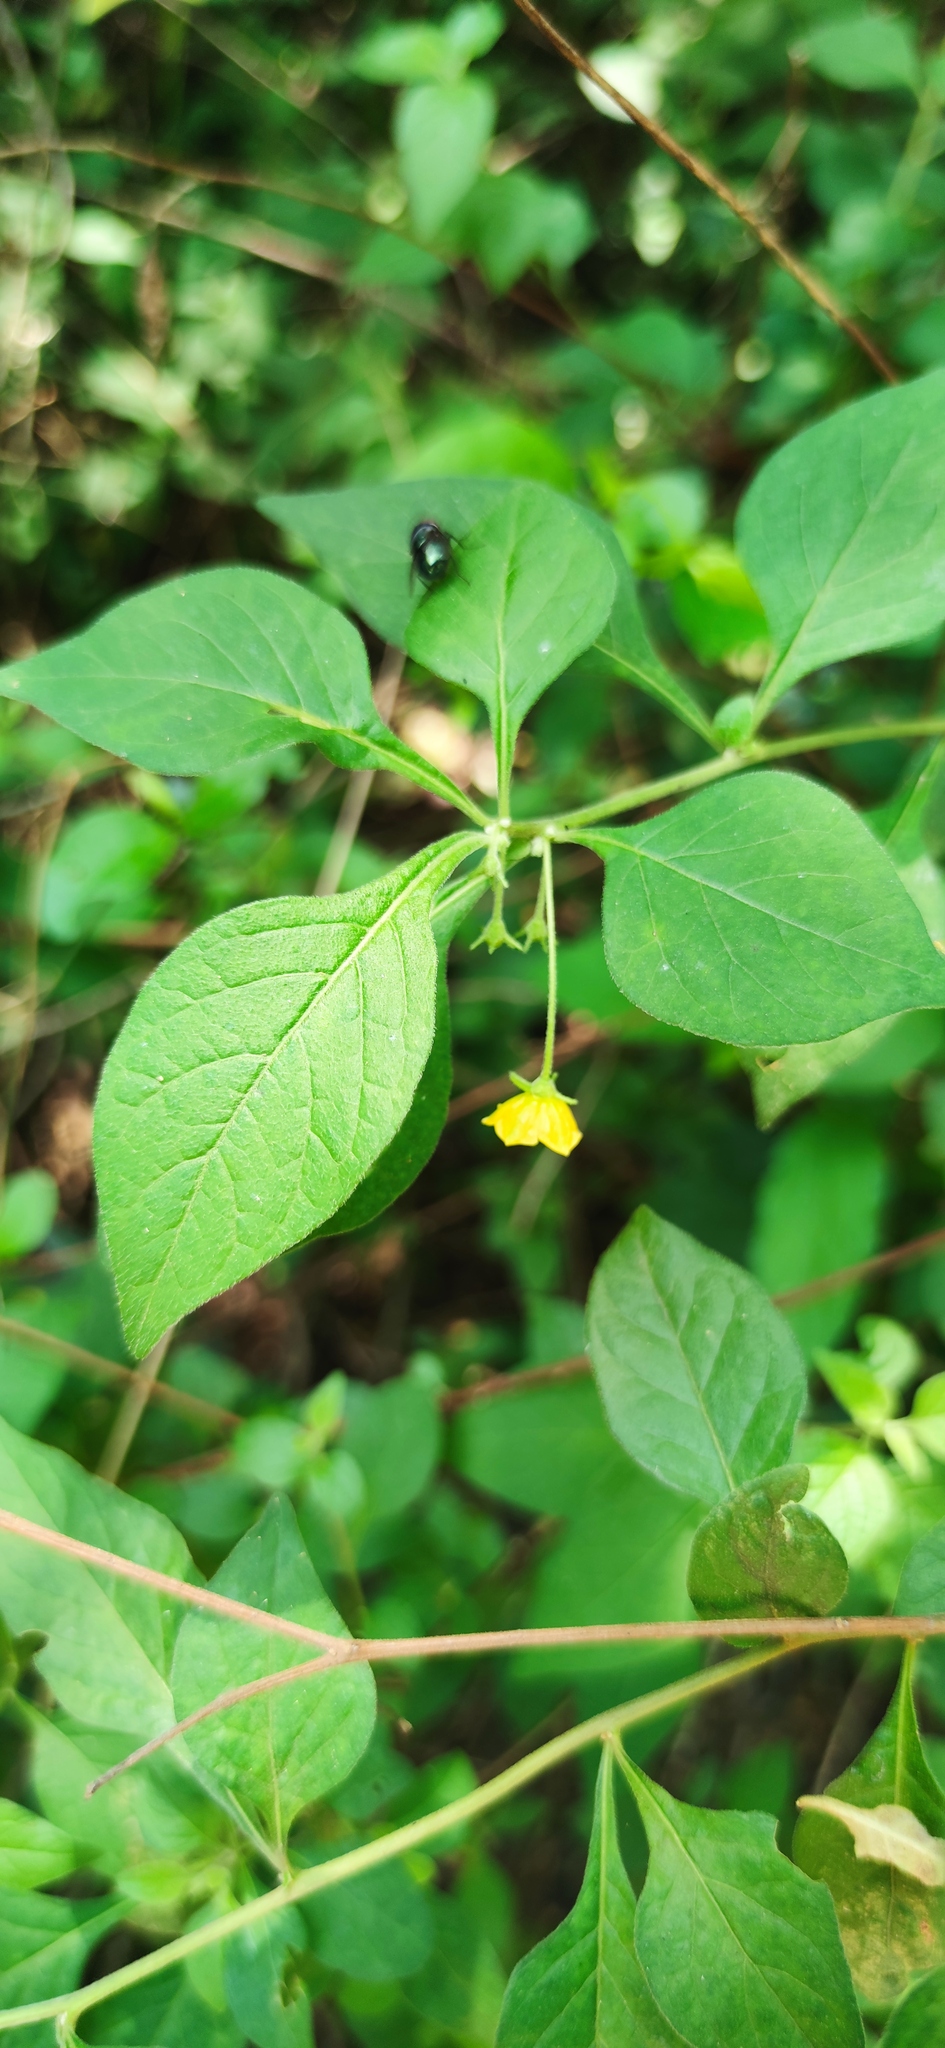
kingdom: Plantae
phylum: Tracheophyta
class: Magnoliopsida
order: Solanales
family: Solanaceae
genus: Capsicum
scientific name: Capsicum rhomboideum
